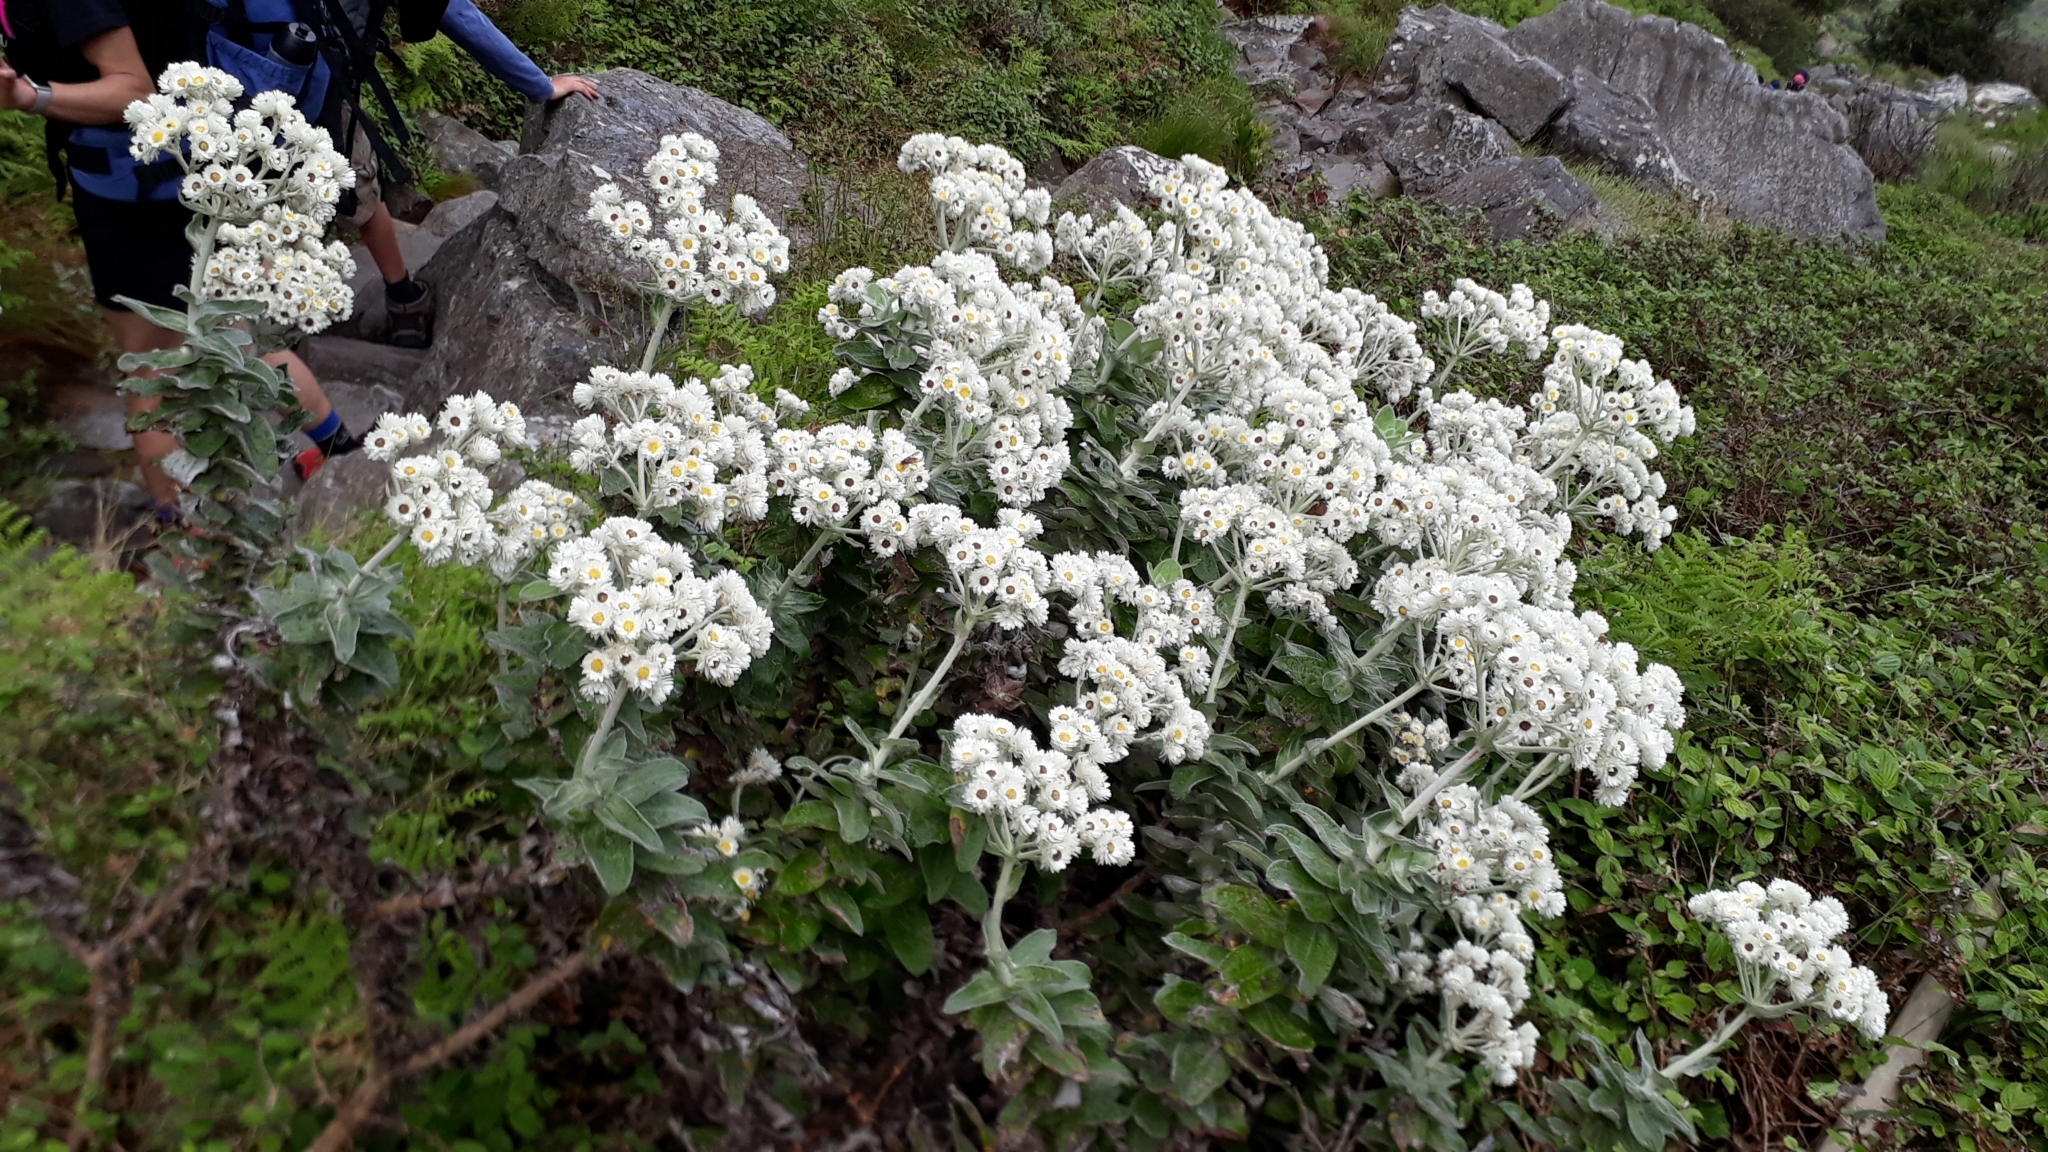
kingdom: Plantae
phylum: Tracheophyta
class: Magnoliopsida
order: Asterales
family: Asteraceae
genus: Helichrysum
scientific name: Helichrysum fruticans
